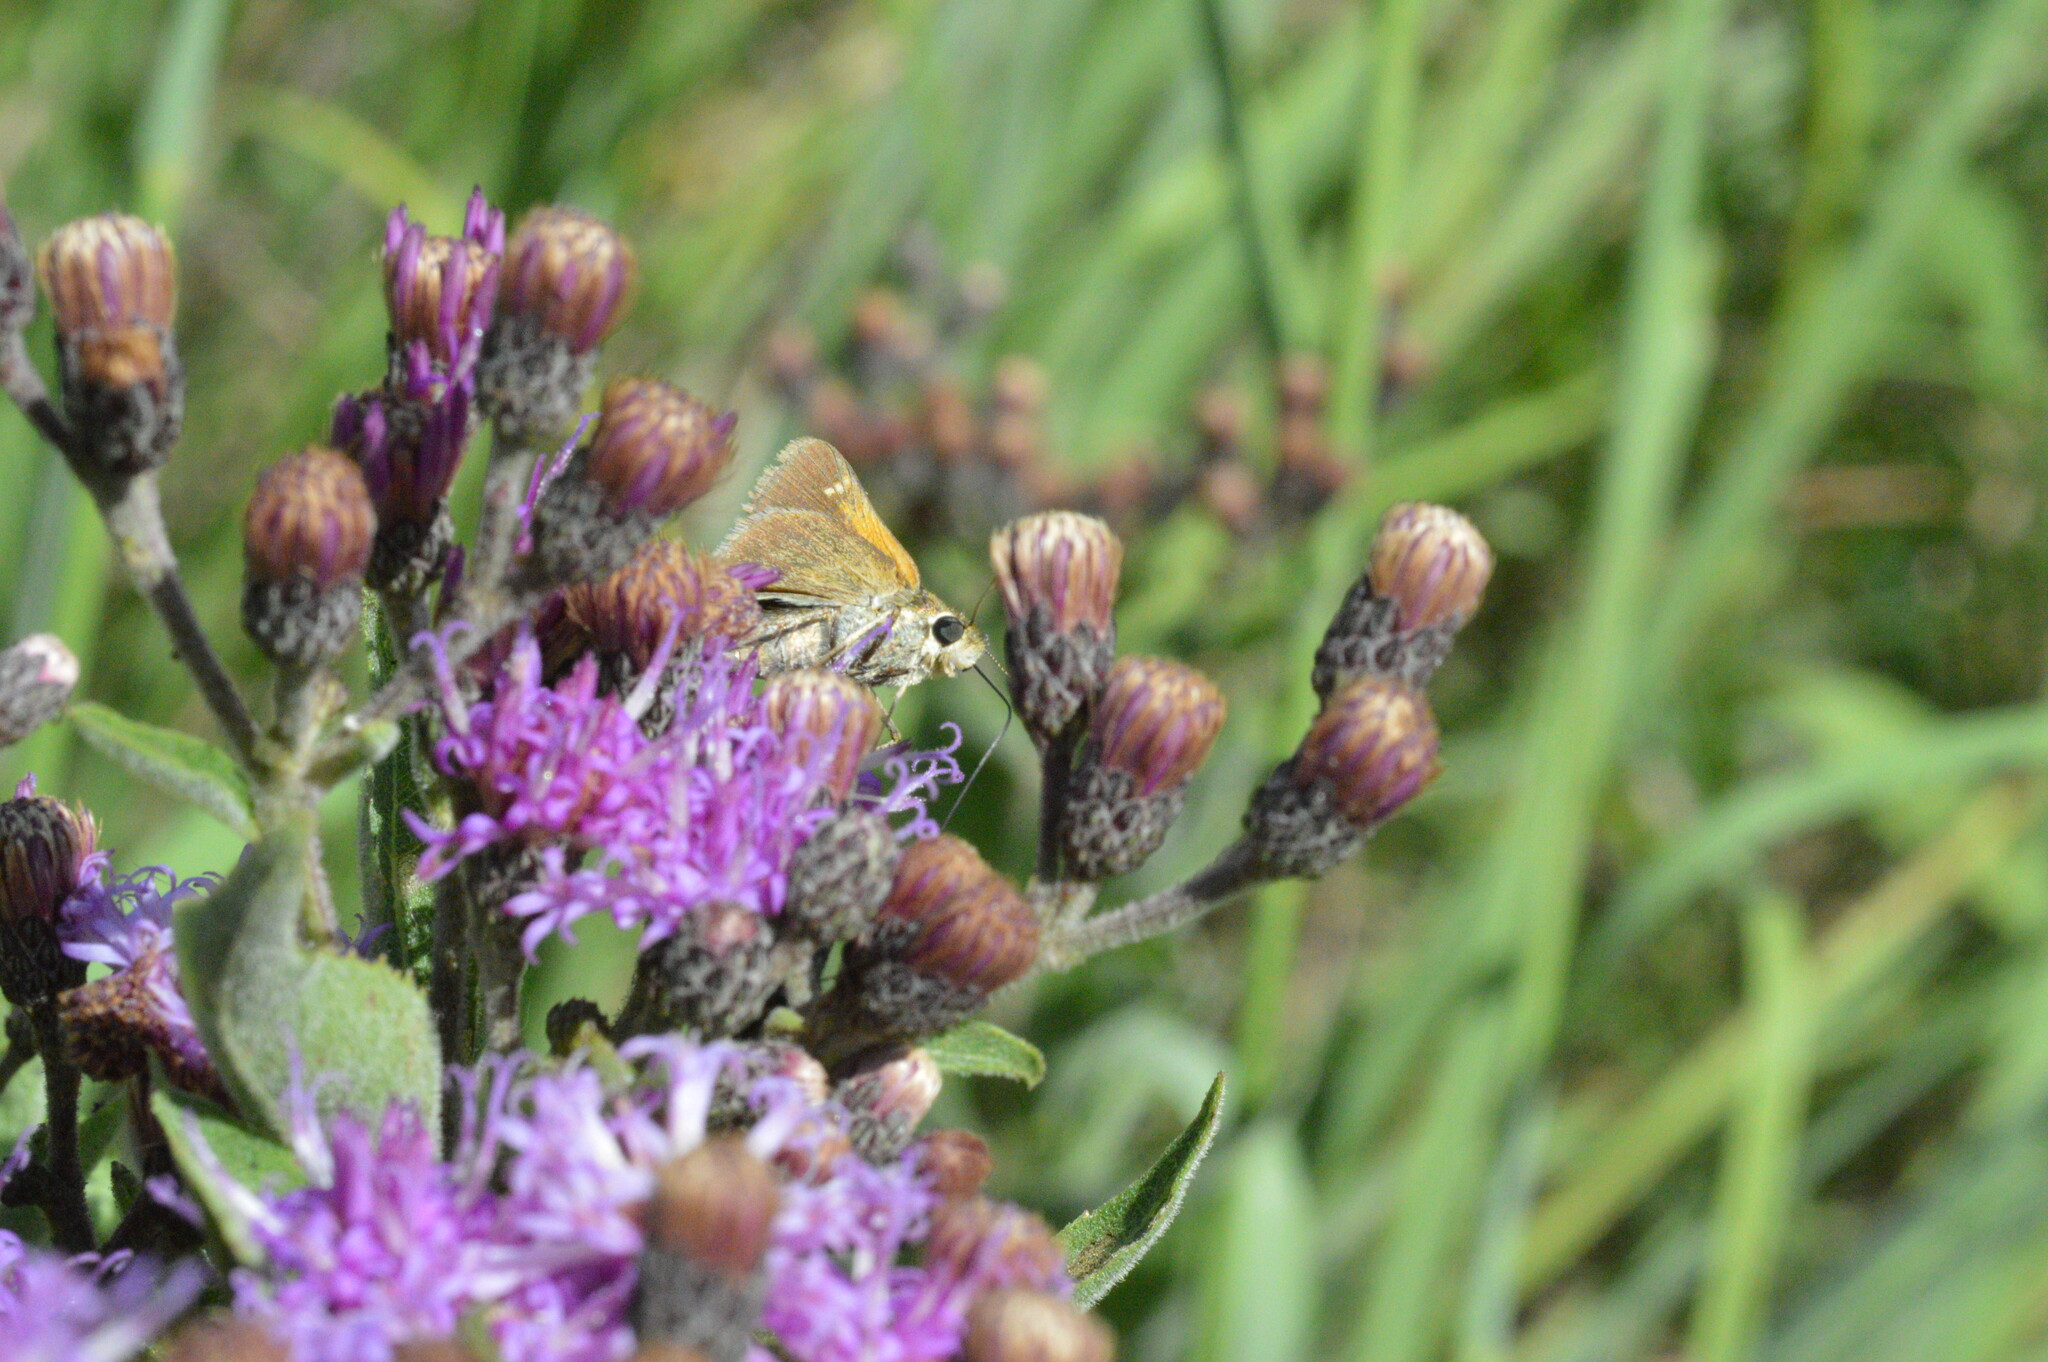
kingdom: Animalia
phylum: Arthropoda
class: Insecta
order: Lepidoptera
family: Hesperiidae
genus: Polites
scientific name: Polites themistocles
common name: Tawny-edged skipper
